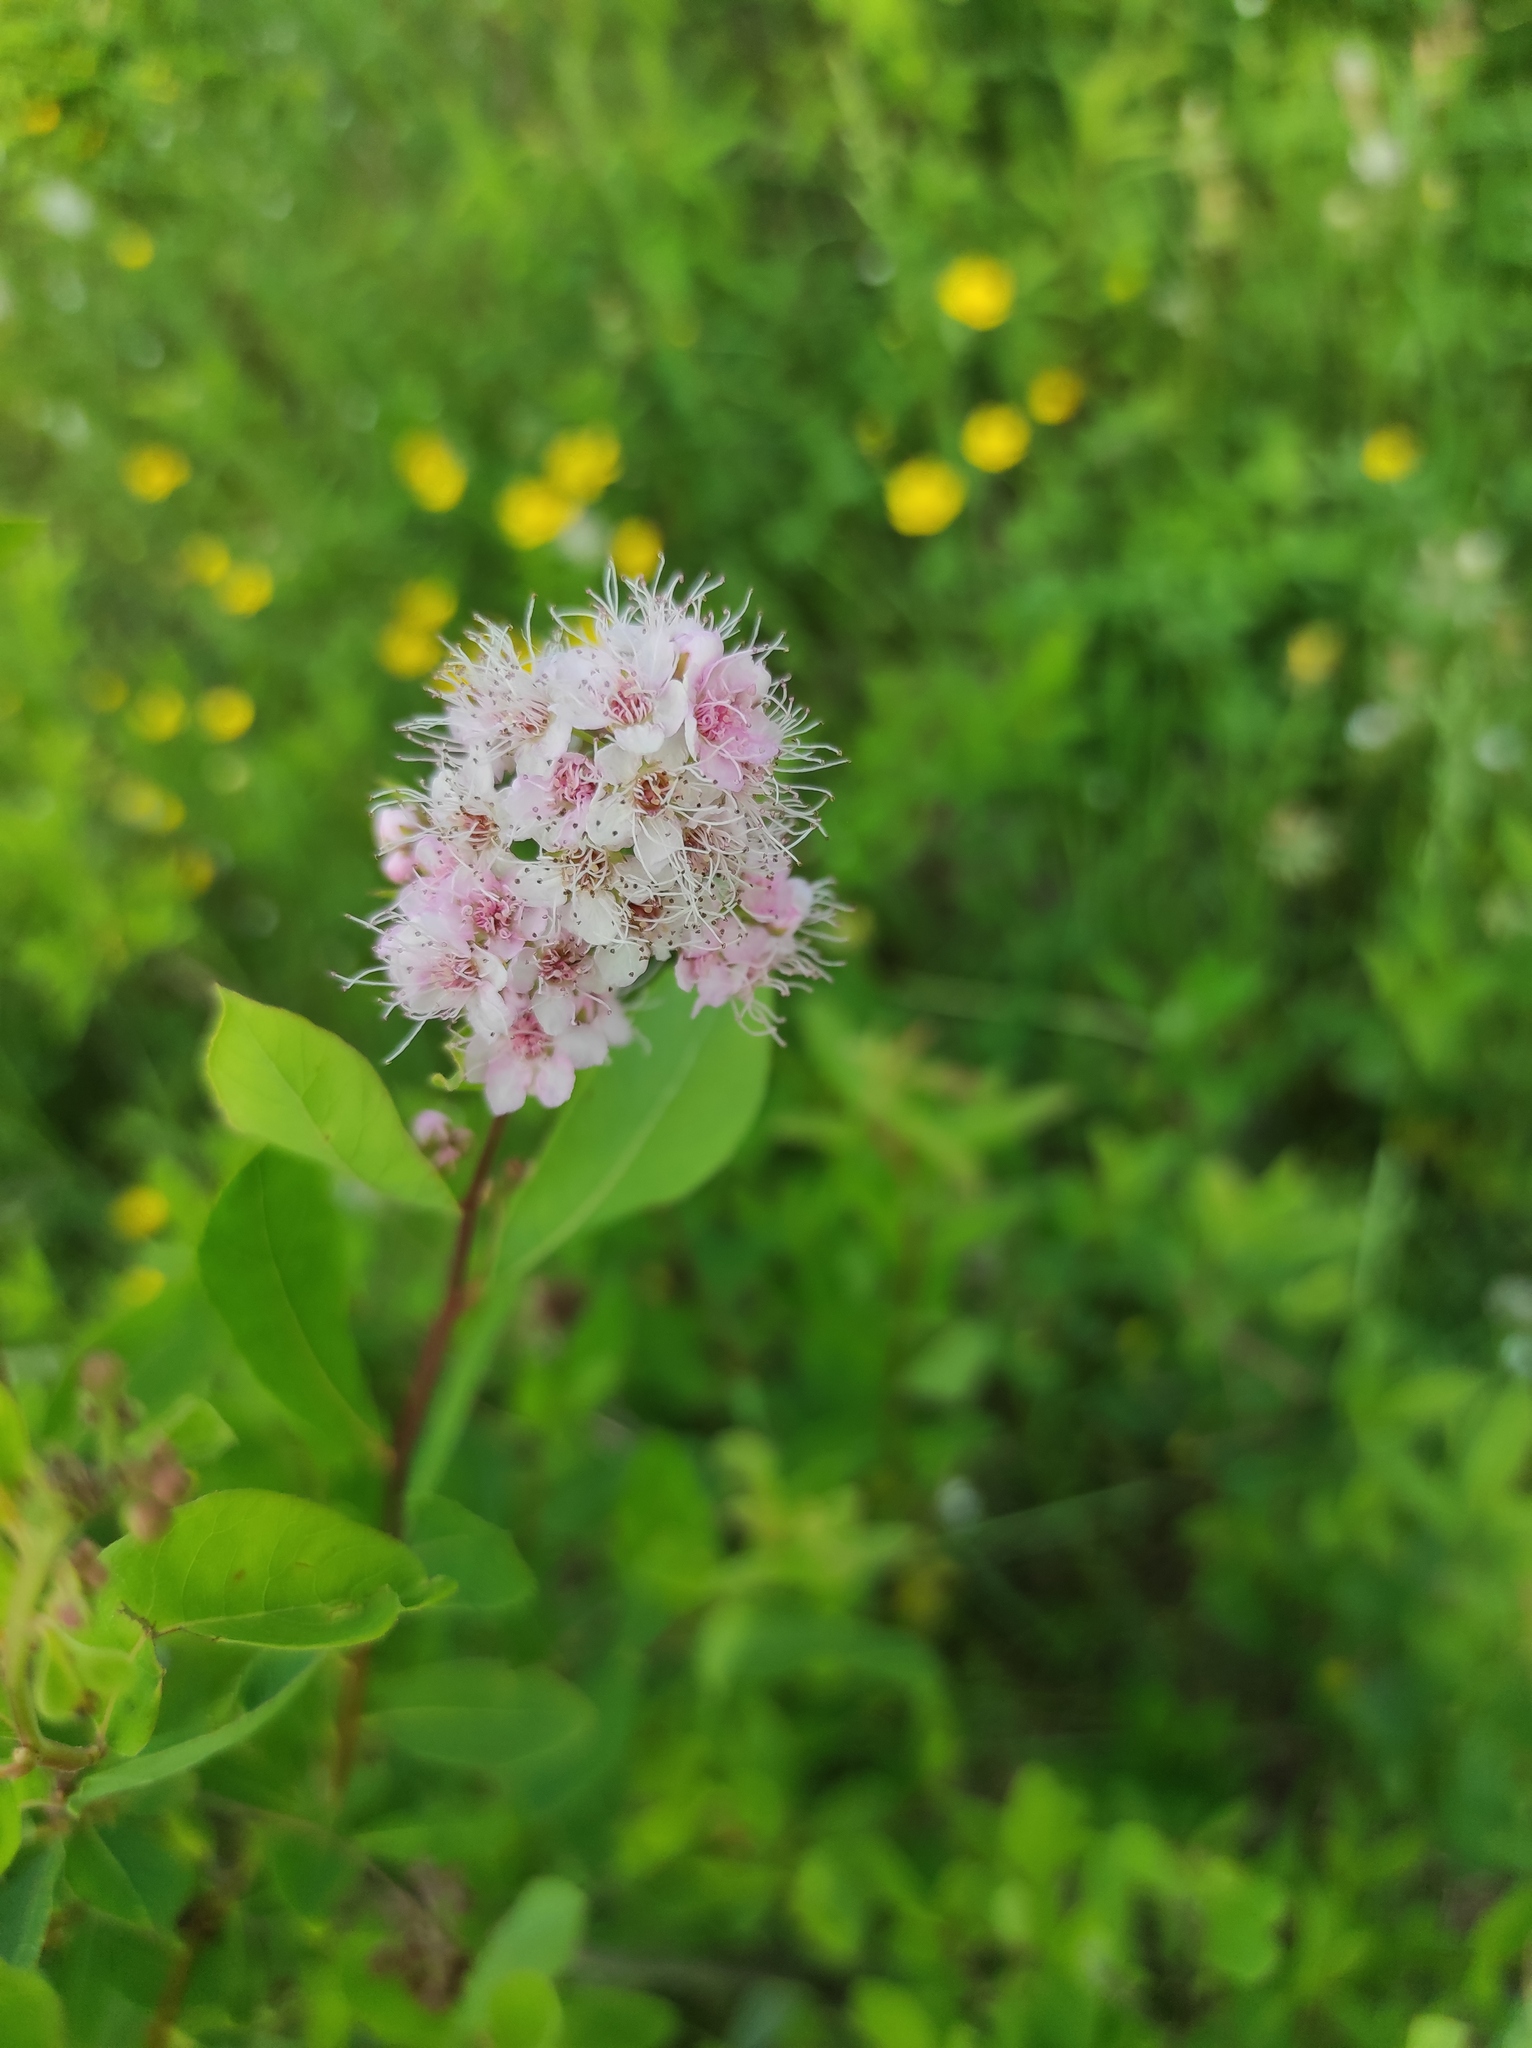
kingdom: Plantae
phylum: Tracheophyta
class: Magnoliopsida
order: Rosales
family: Rosaceae
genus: Spiraea
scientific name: Spiraea salicifolia
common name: Bridewort
